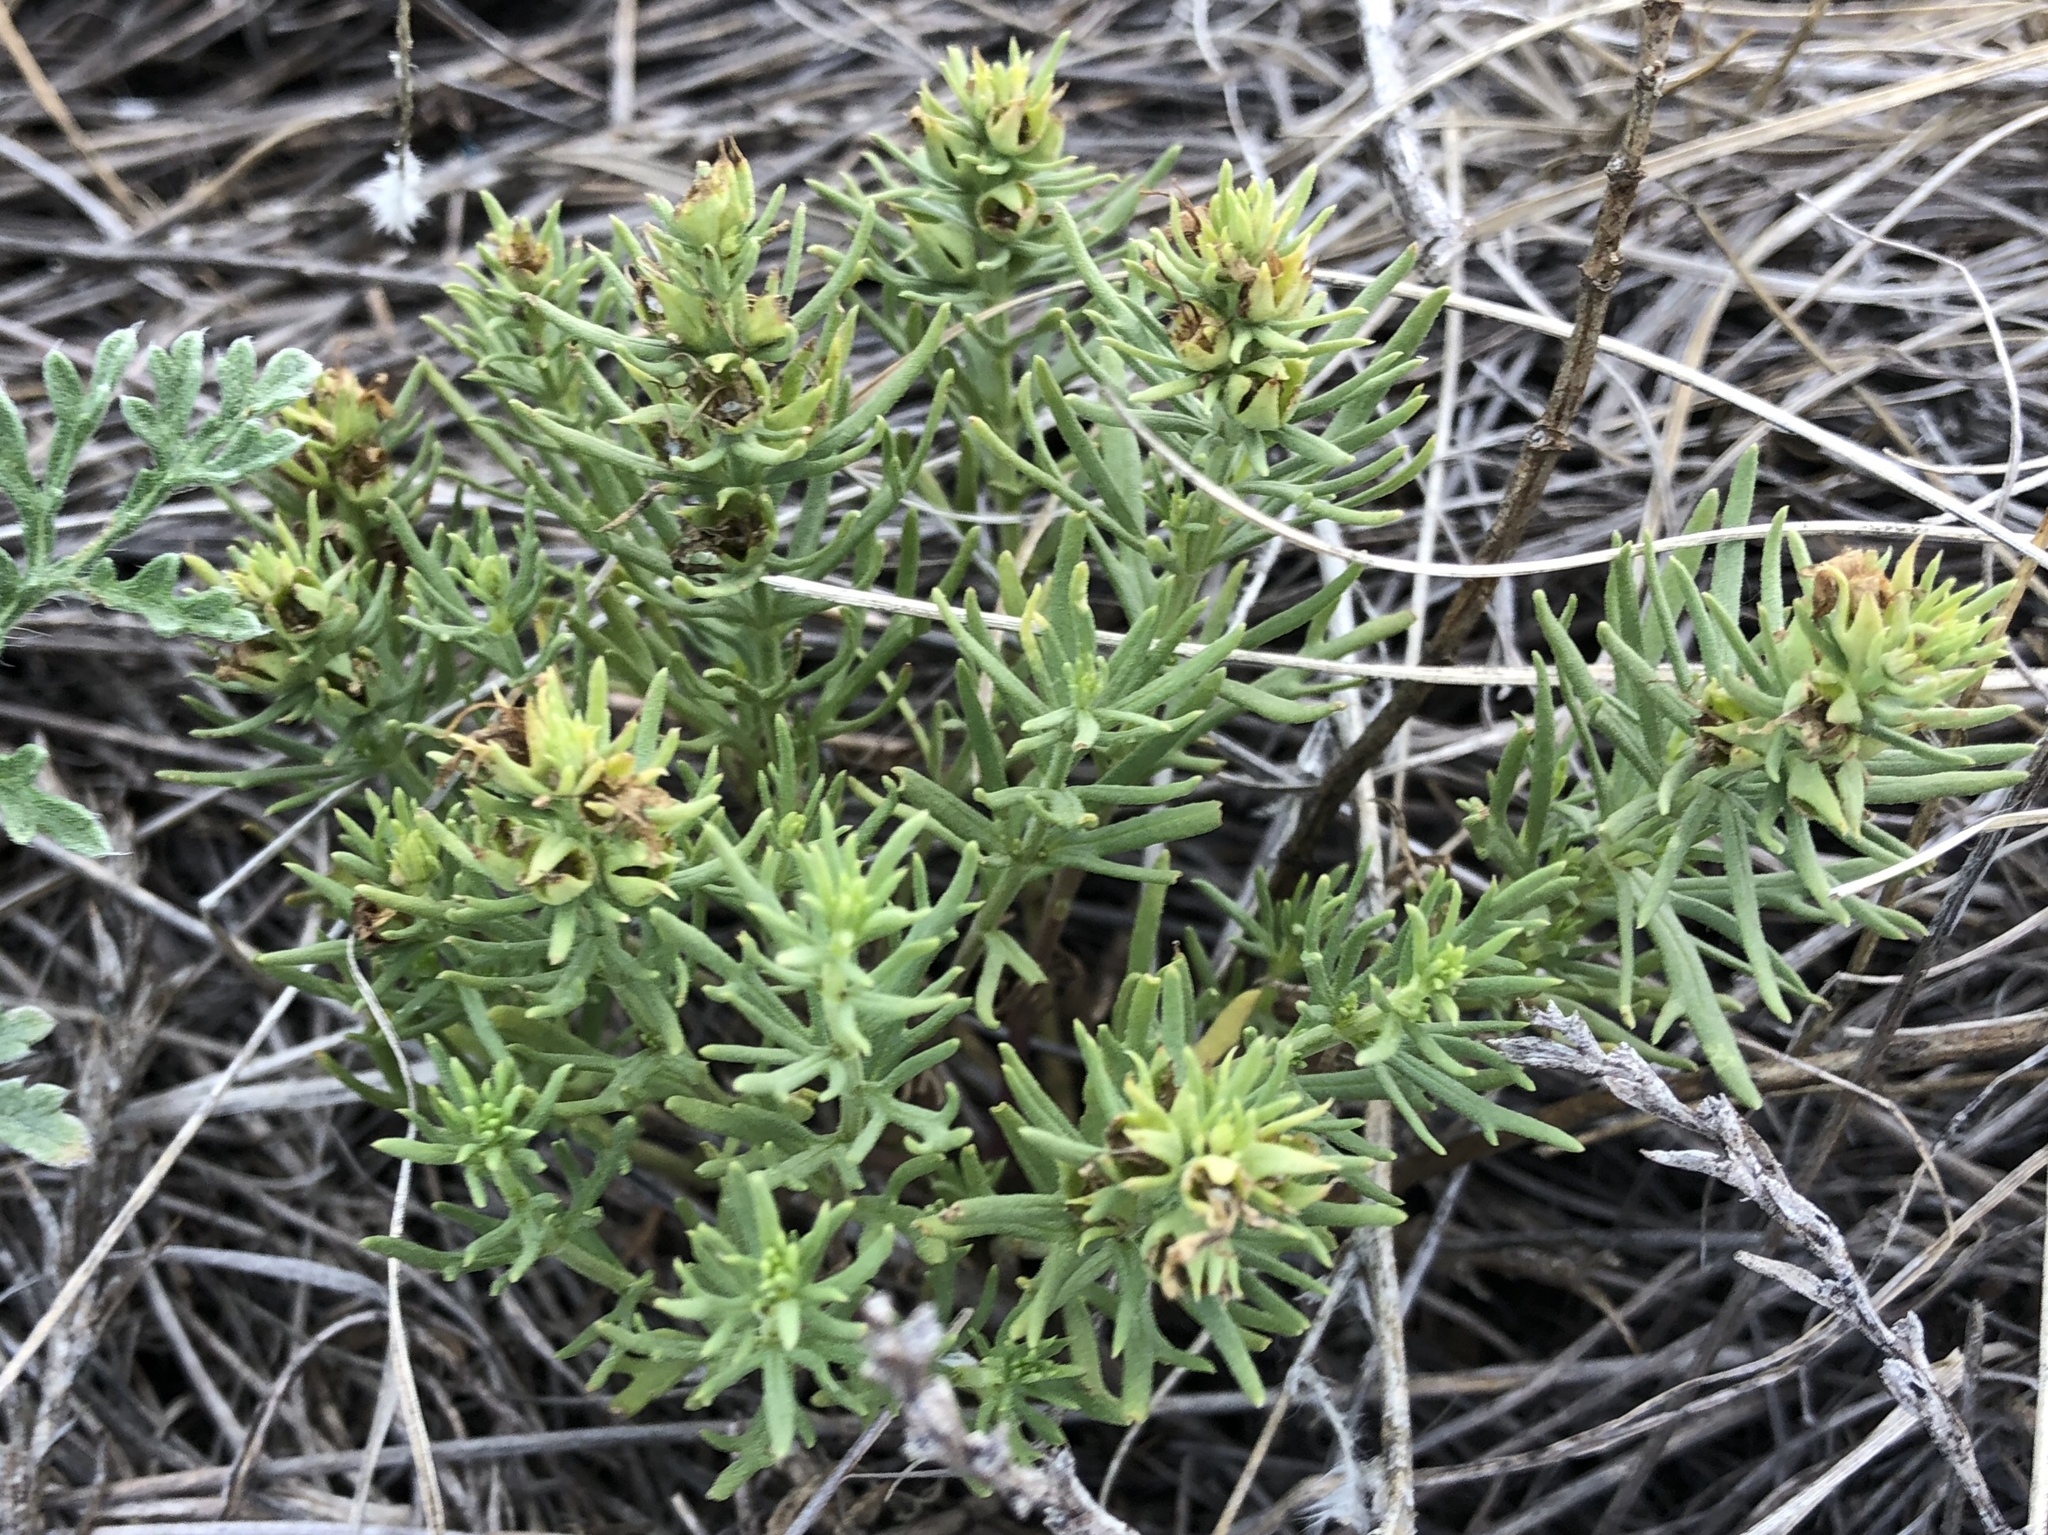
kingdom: Plantae
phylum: Tracheophyta
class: Magnoliopsida
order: Lamiales
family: Lamiaceae
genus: Teucrium
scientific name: Teucrium laciniatum
